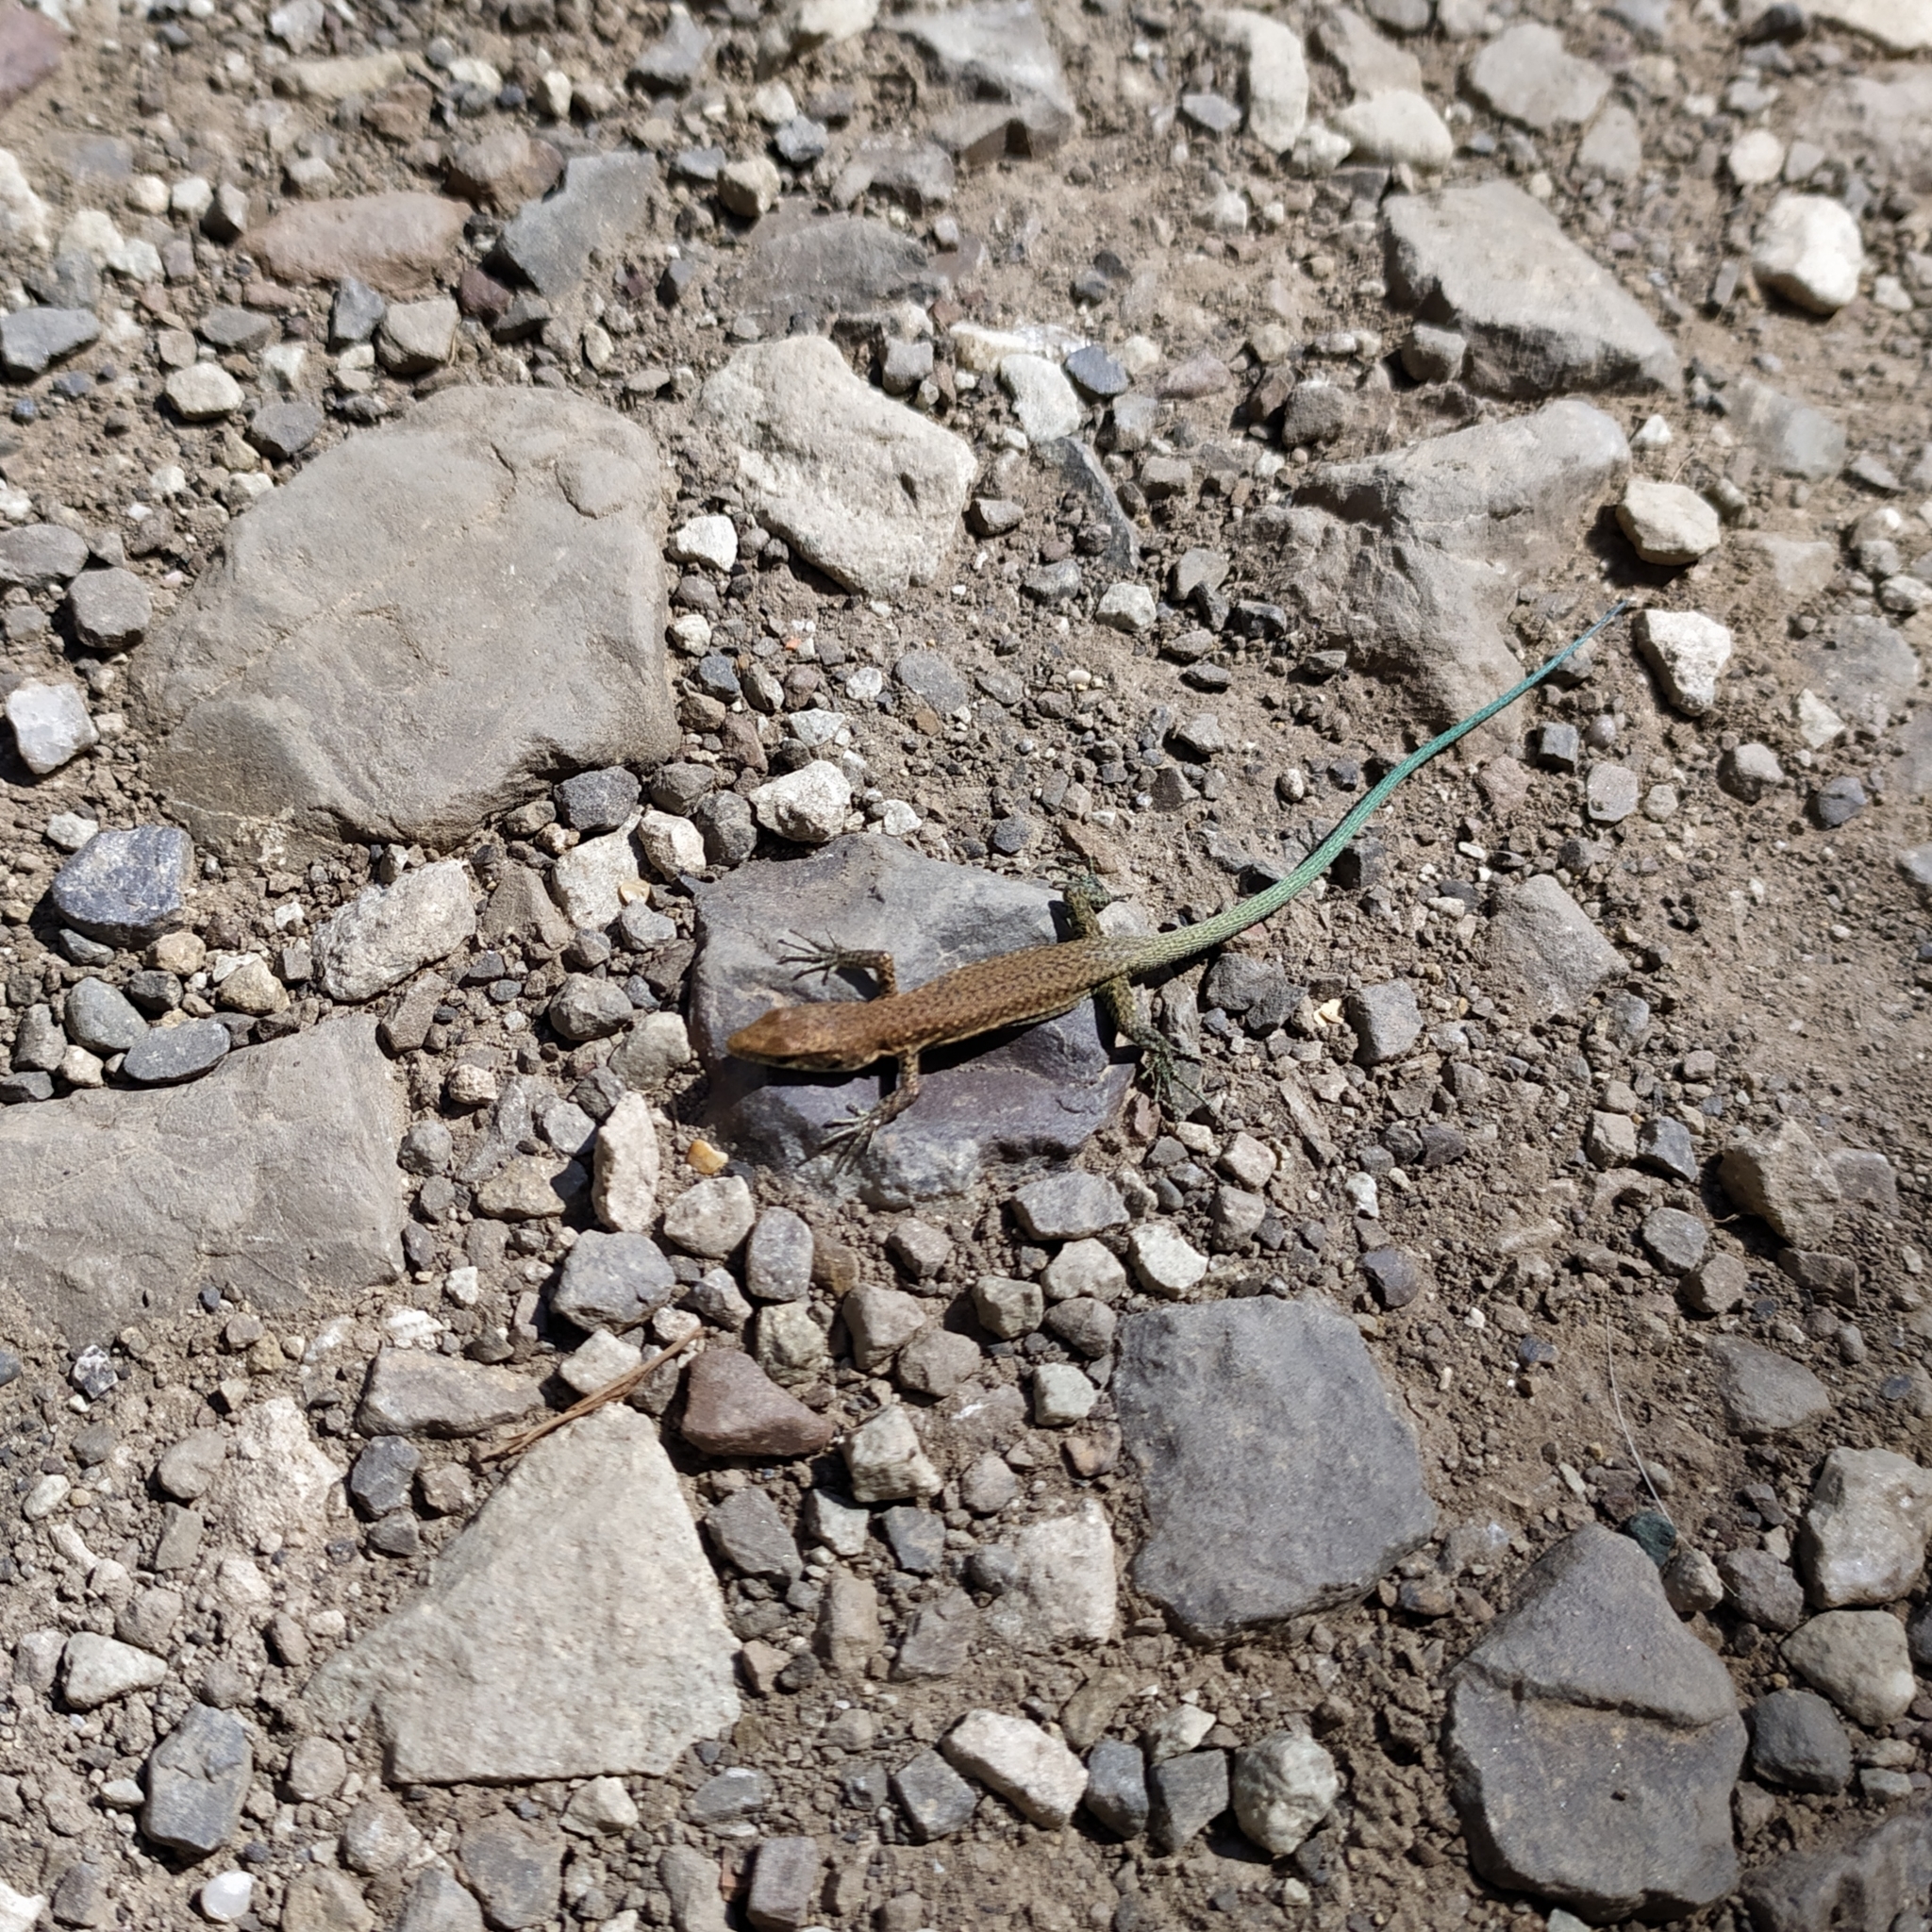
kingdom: Animalia
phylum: Chordata
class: Squamata
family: Lacertidae
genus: Darevskia
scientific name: Darevskia lindholmi
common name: Crimean rock lizard
